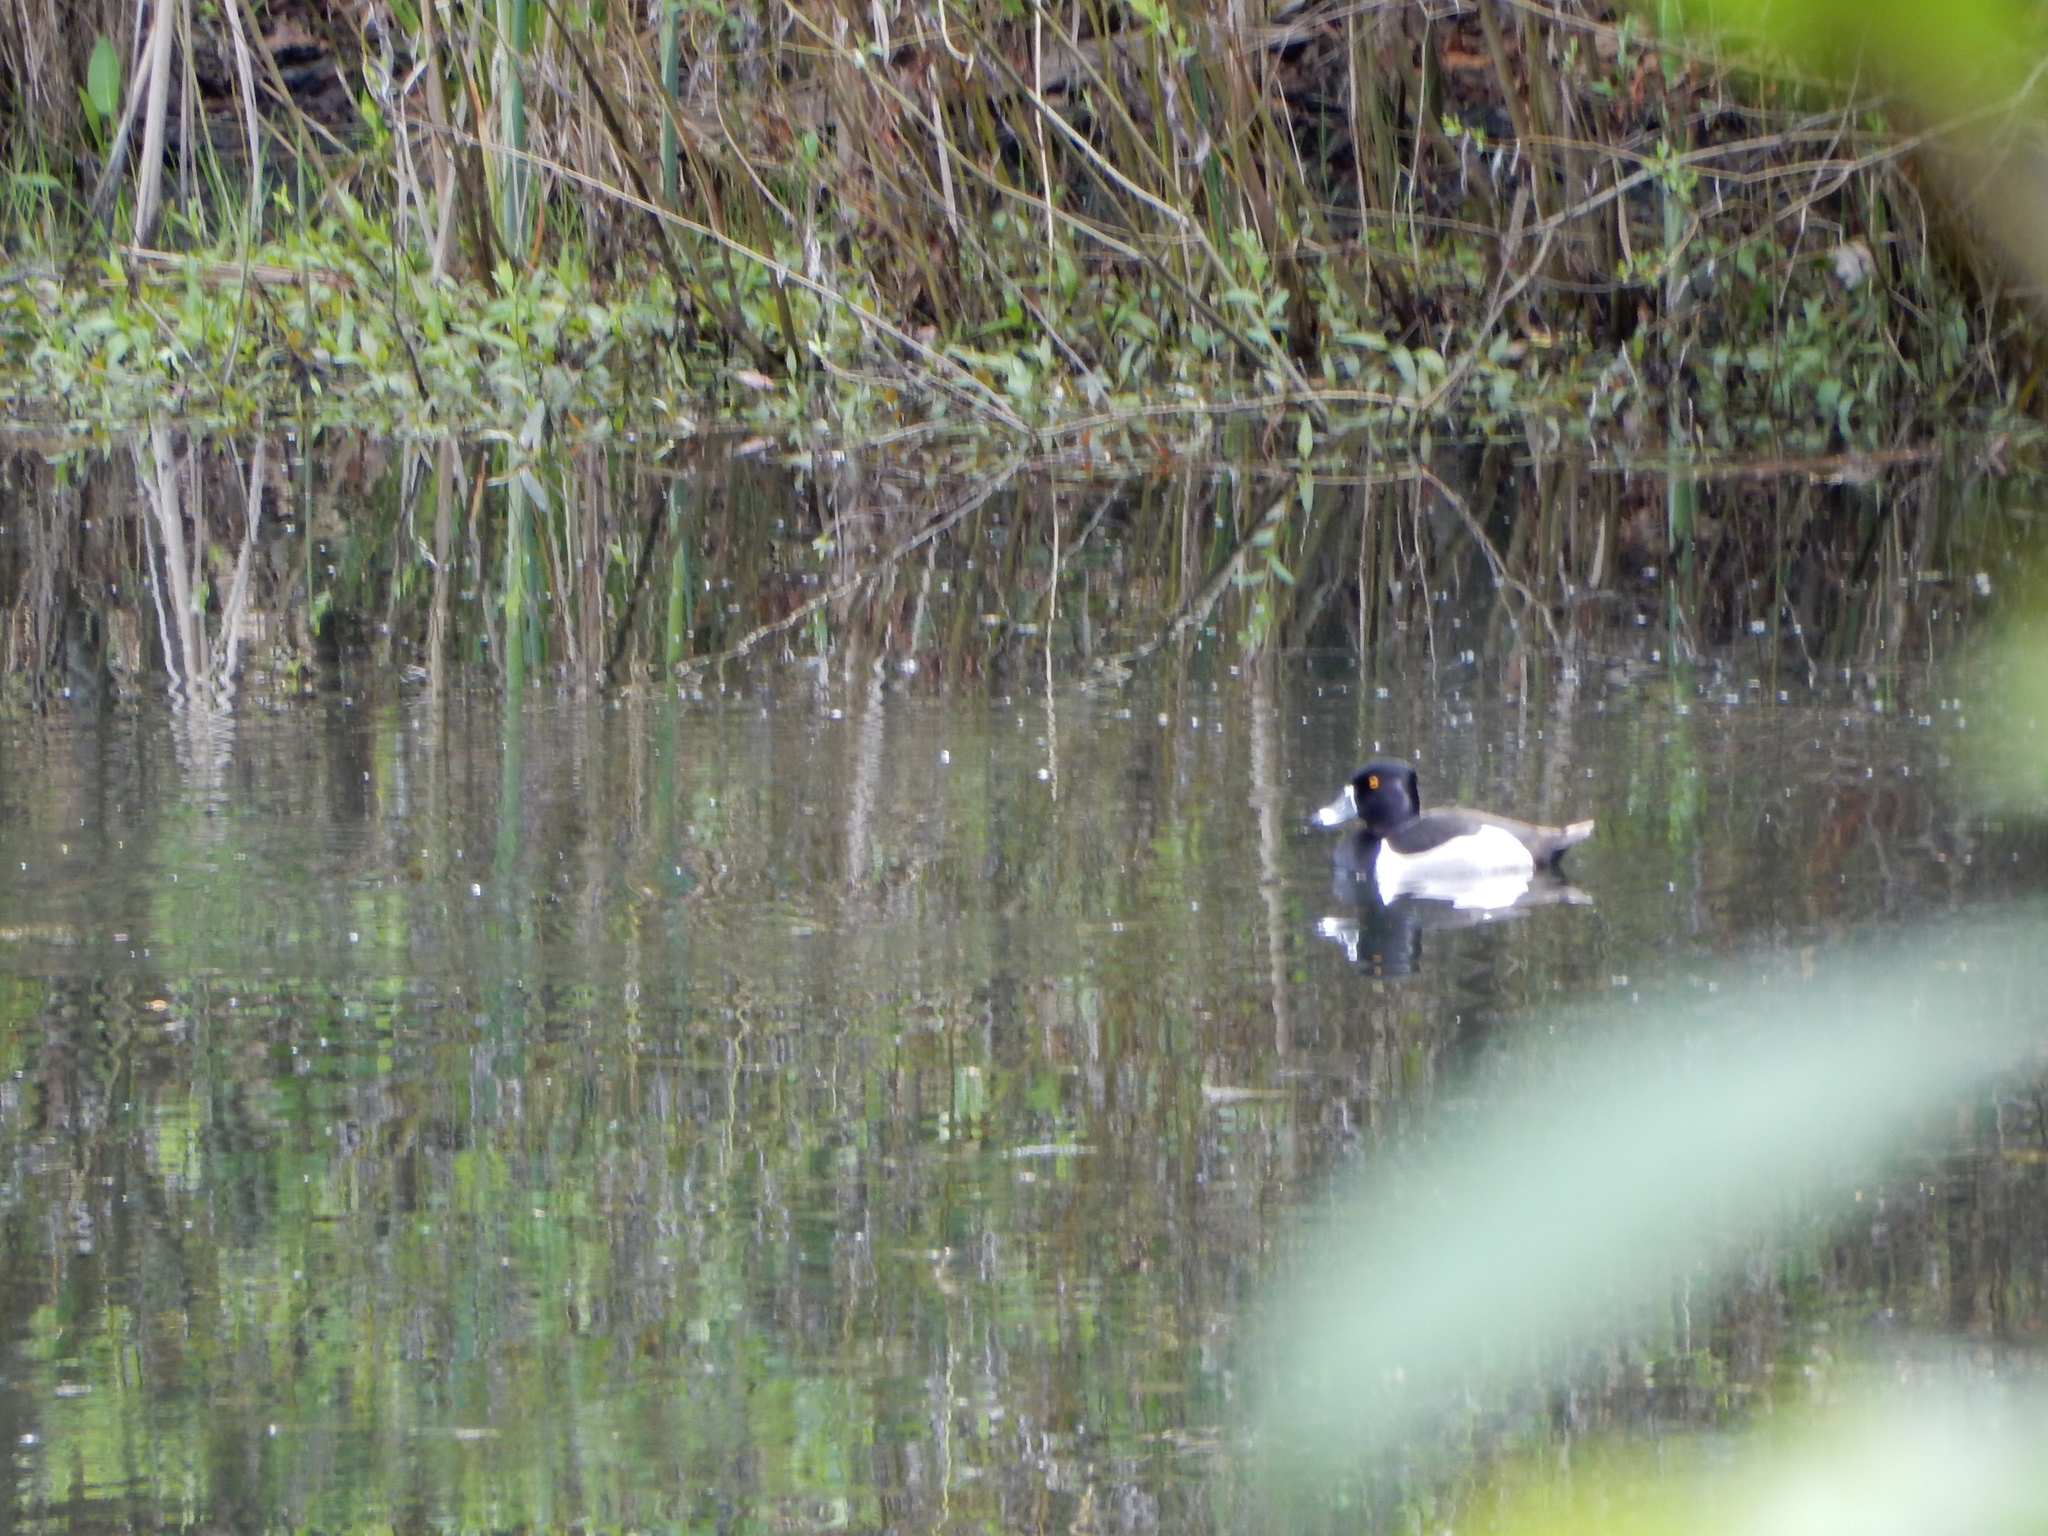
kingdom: Animalia
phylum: Chordata
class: Aves
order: Anseriformes
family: Anatidae
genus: Aythya
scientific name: Aythya collaris
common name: Ring-necked duck
